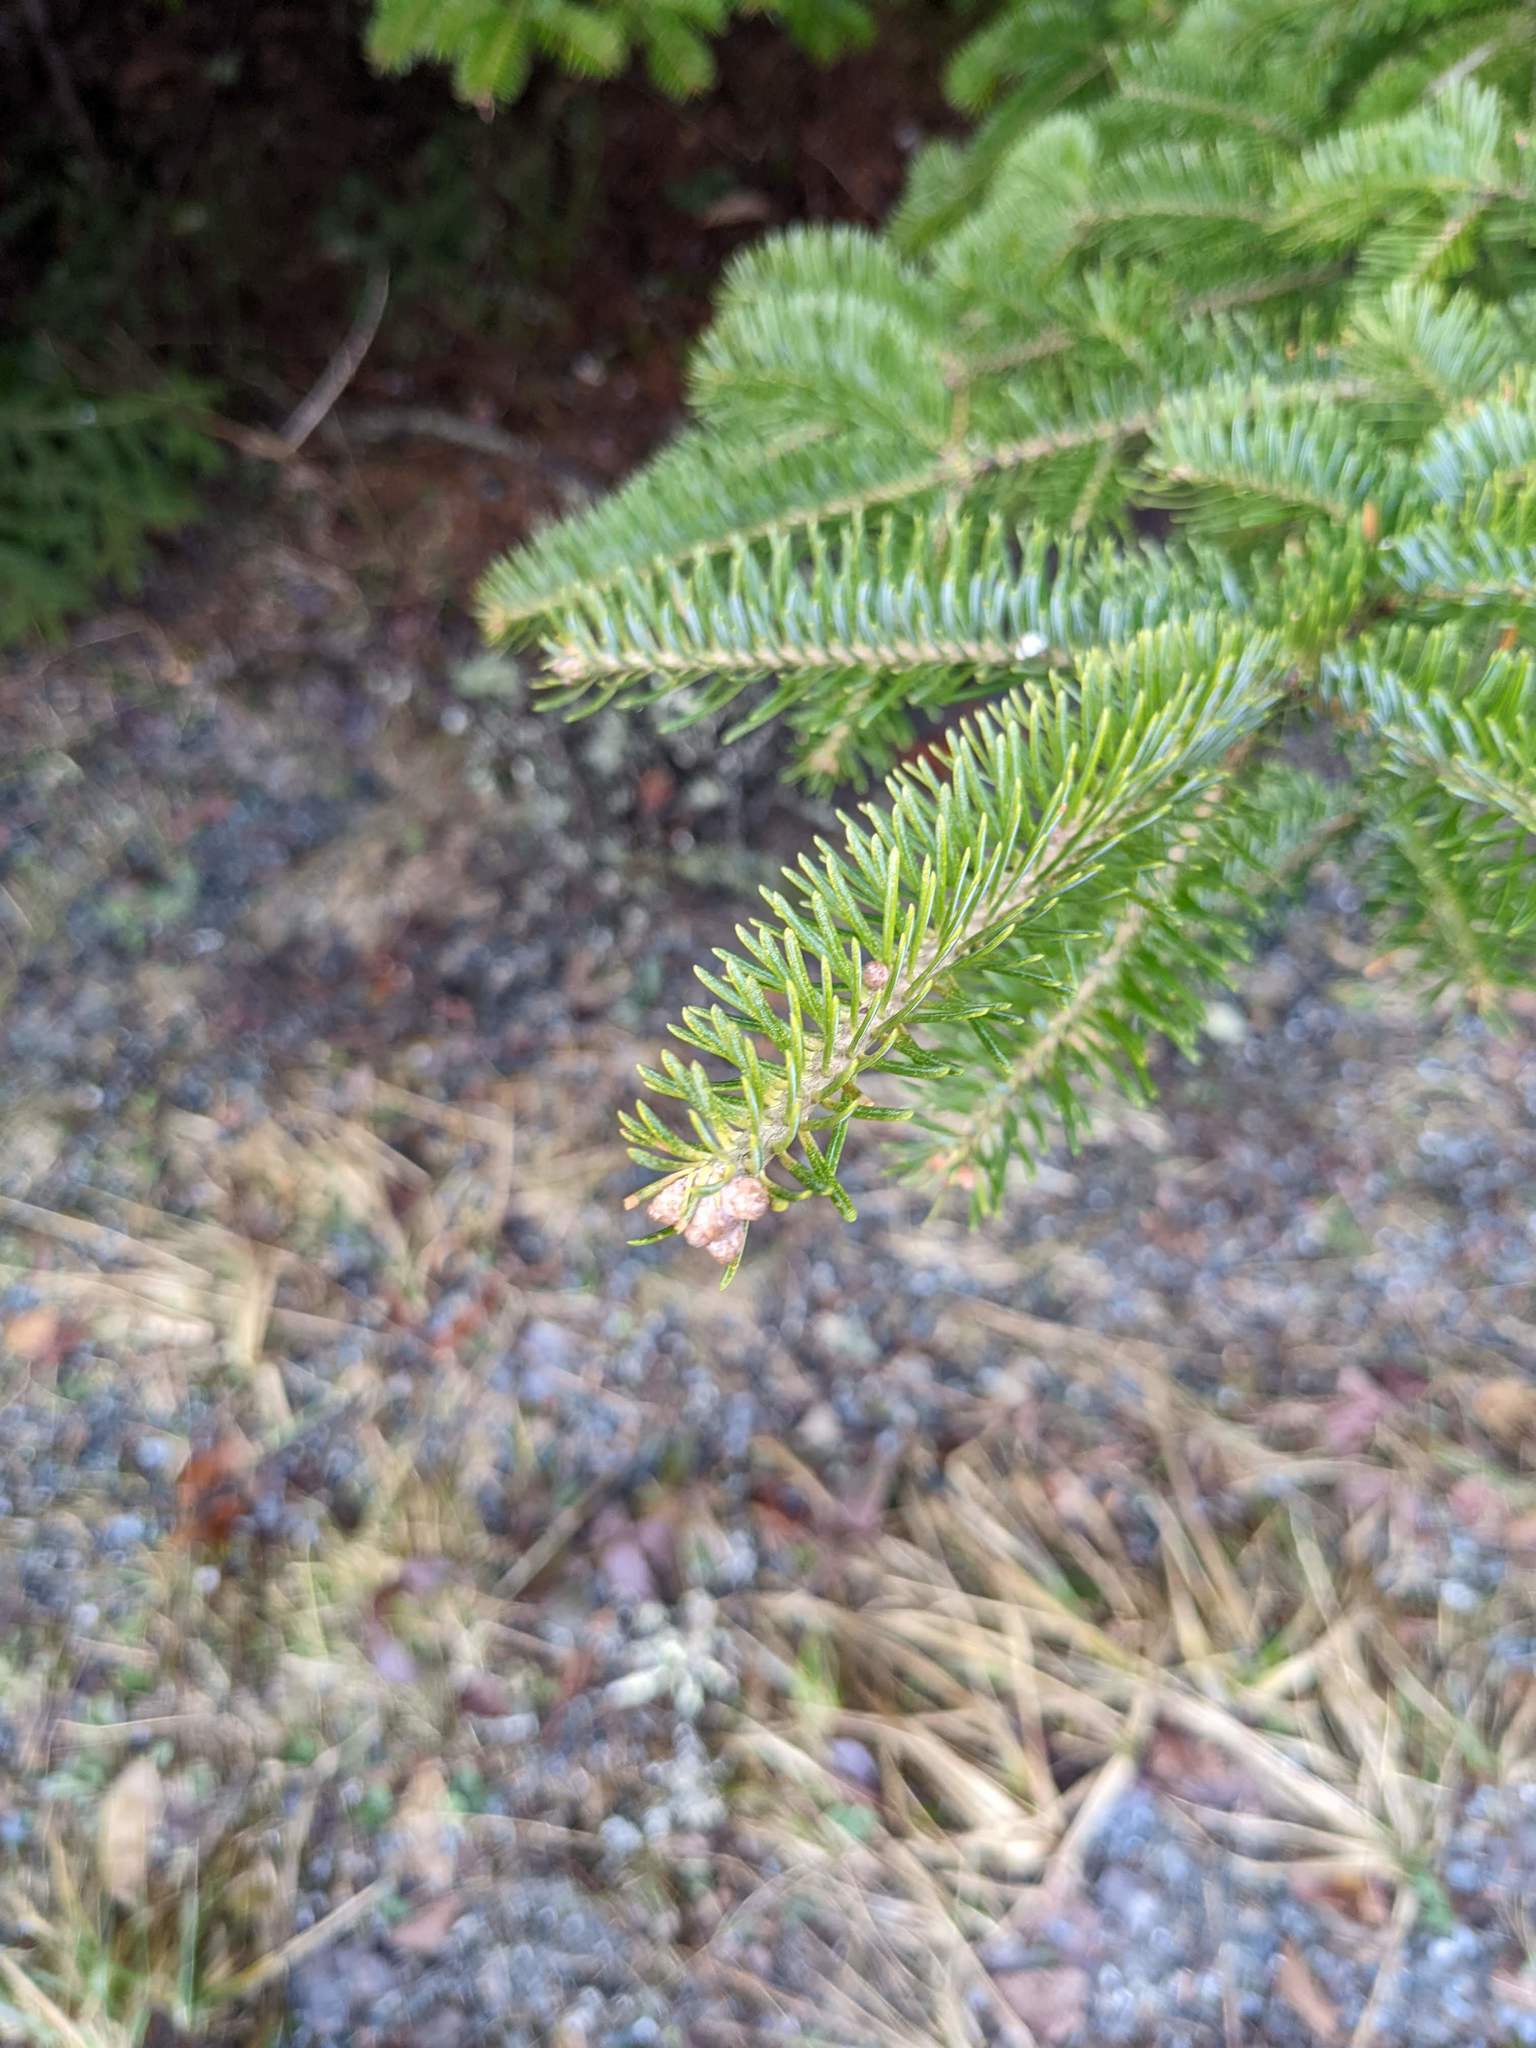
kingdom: Plantae
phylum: Tracheophyta
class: Pinopsida
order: Pinales
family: Pinaceae
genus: Abies
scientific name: Abies balsamea
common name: Balsam fir
